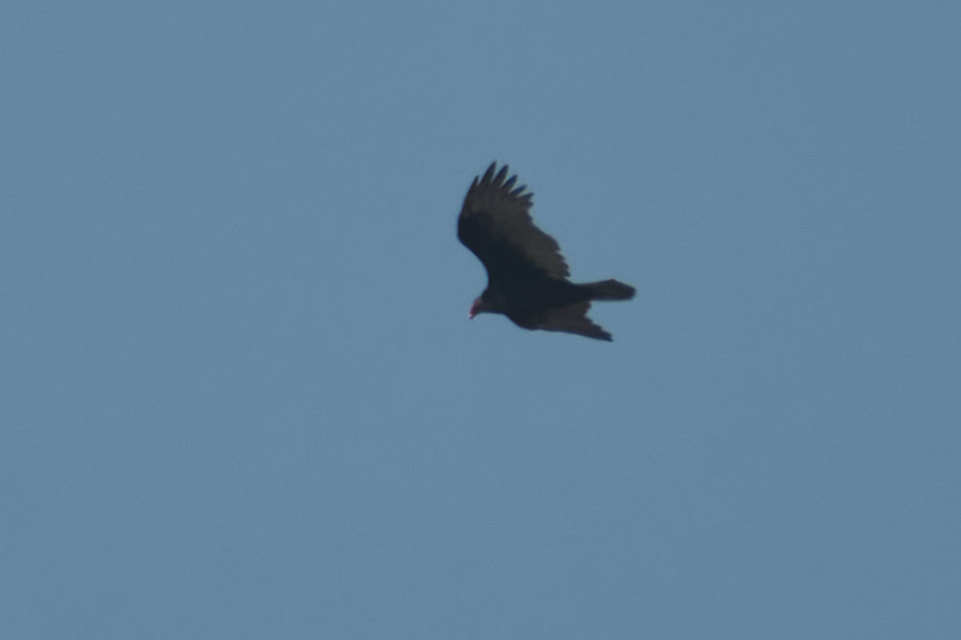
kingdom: Animalia
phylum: Chordata
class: Aves
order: Accipitriformes
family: Cathartidae
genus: Cathartes
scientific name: Cathartes aura
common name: Turkey vulture
